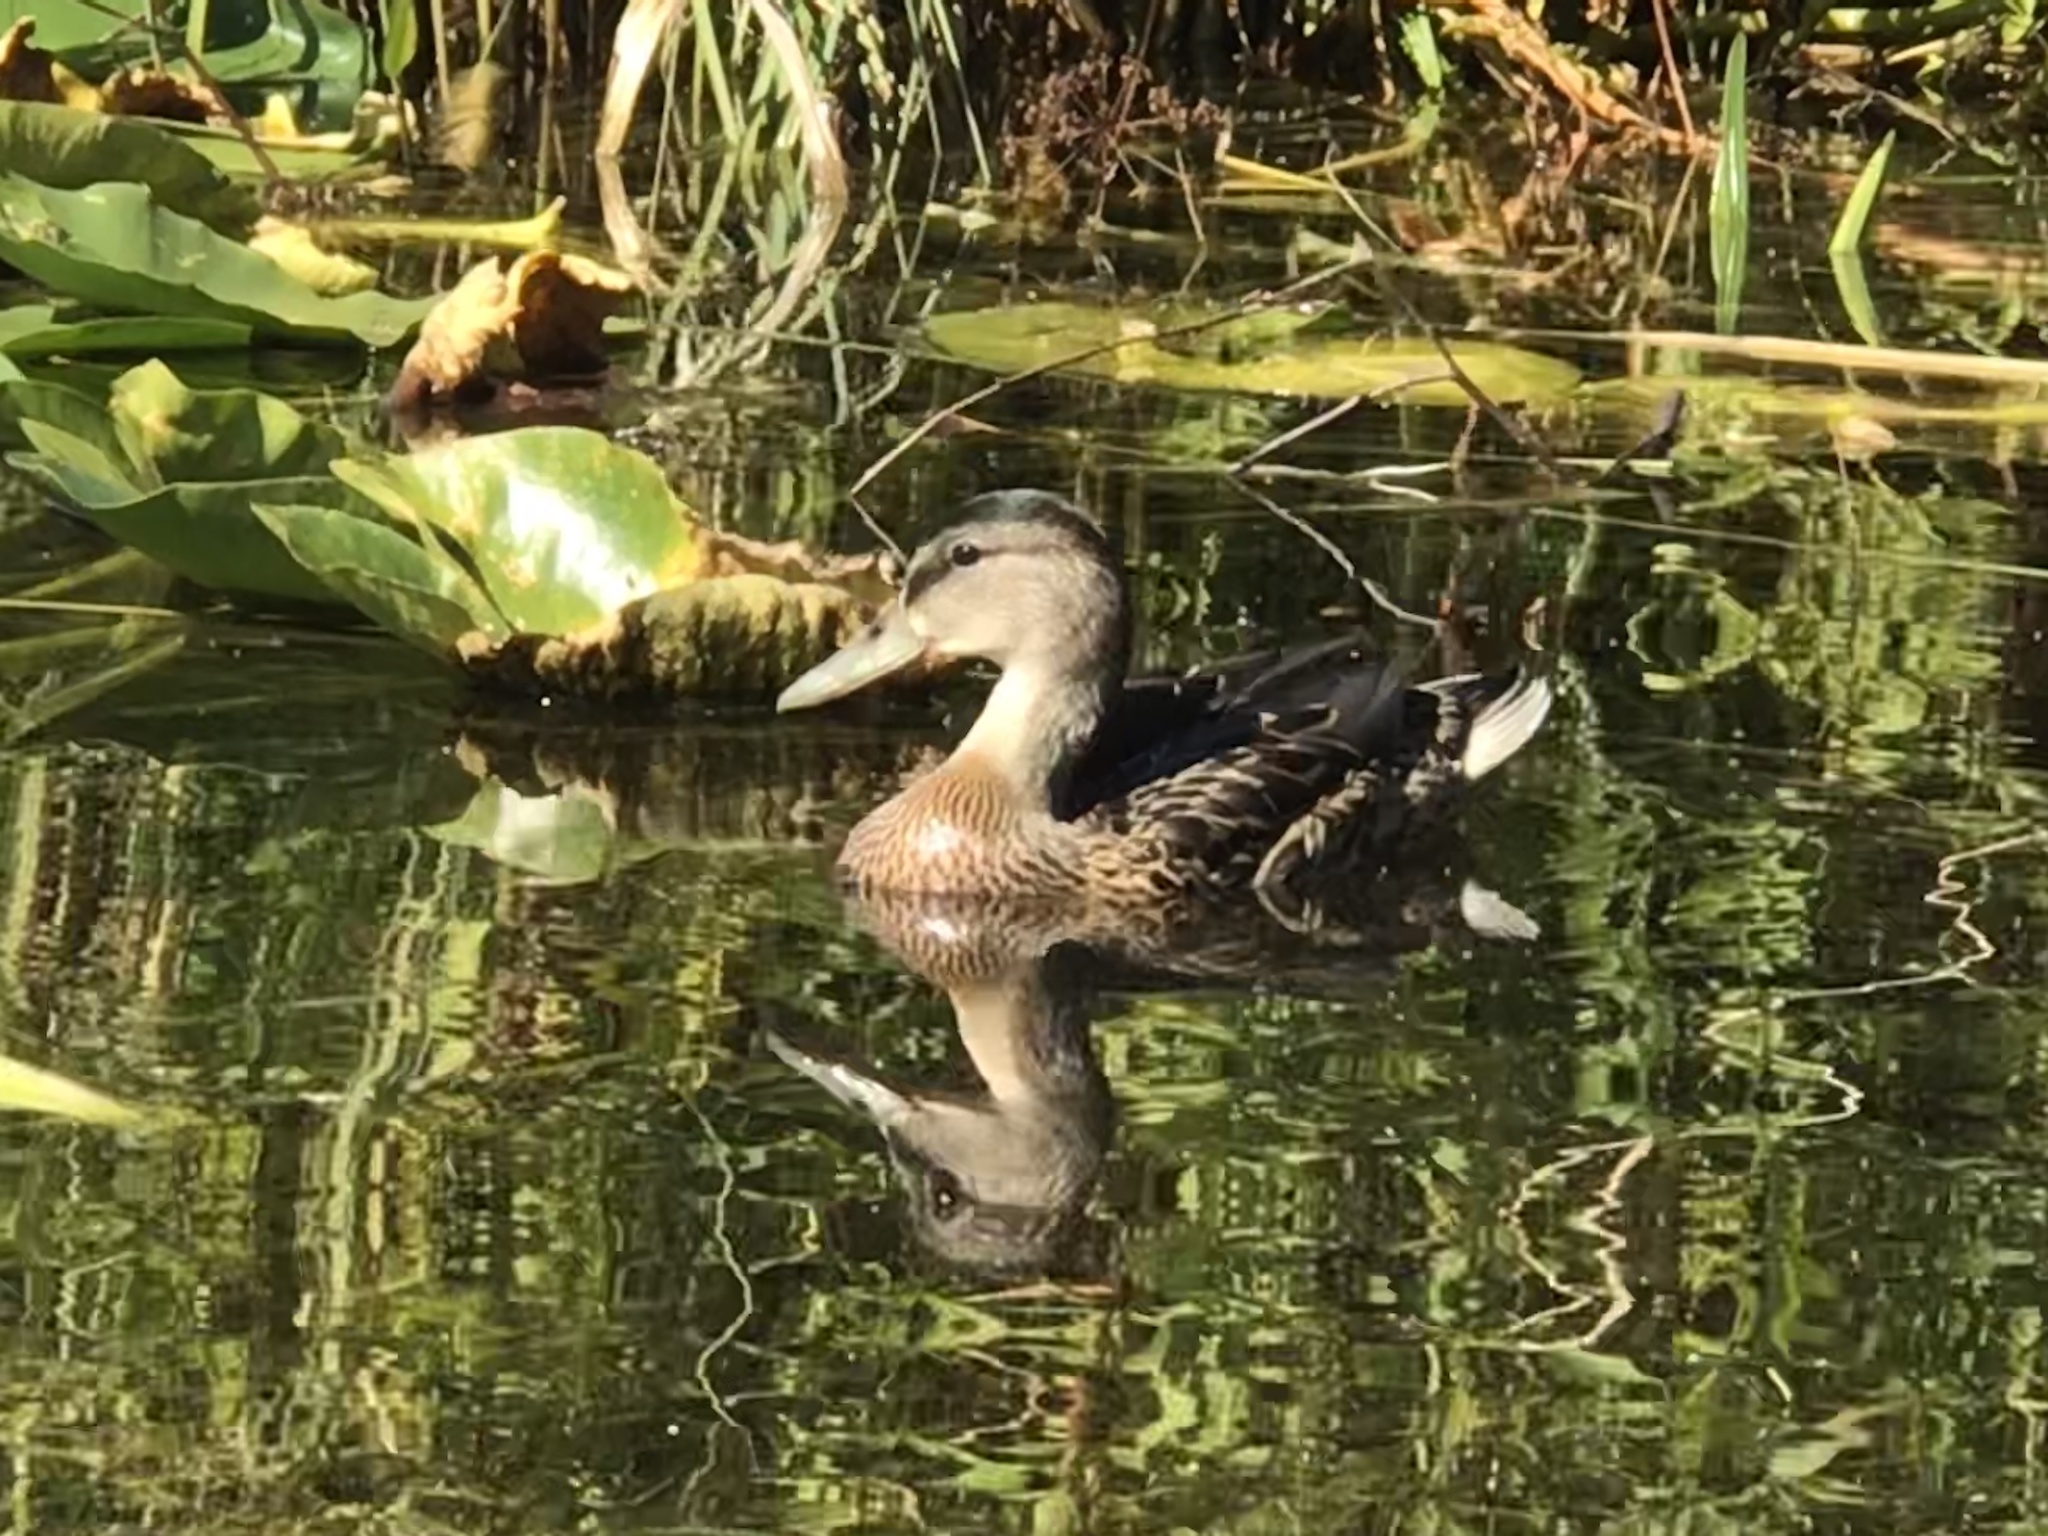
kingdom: Animalia
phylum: Chordata
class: Aves
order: Anseriformes
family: Anatidae
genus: Anas
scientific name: Anas platyrhynchos
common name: Mallard
